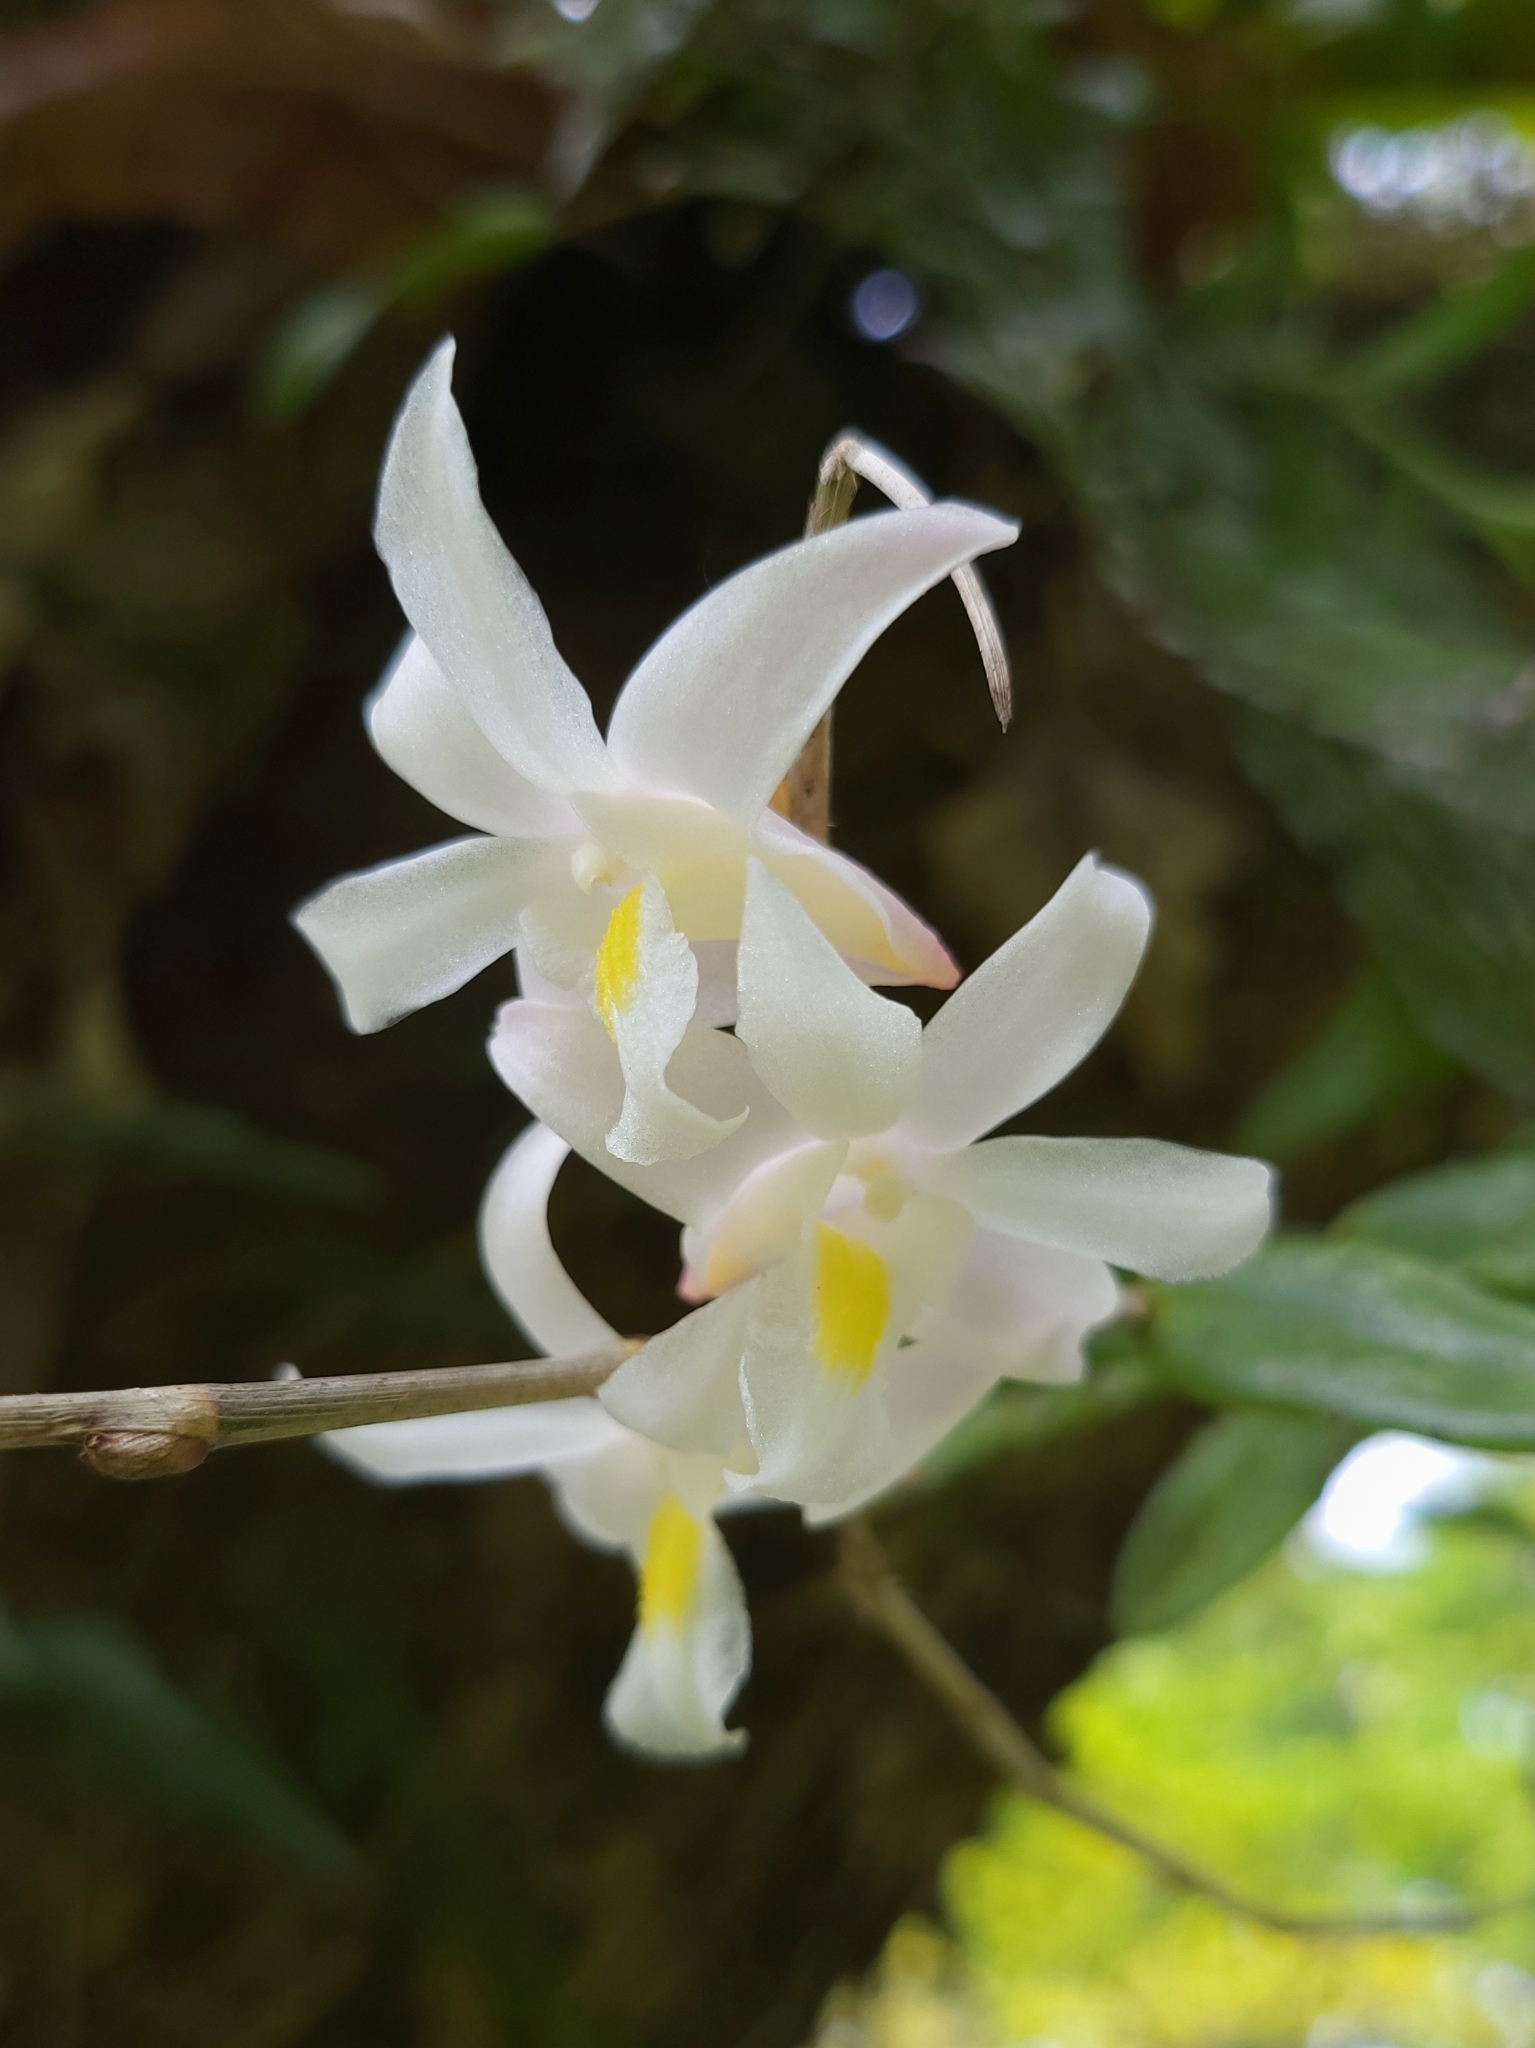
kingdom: Plantae
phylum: Tracheophyta
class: Liliopsida
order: Asparagales
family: Orchidaceae
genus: Dendrobium
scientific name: Dendrobium crumenatum
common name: Orchid
